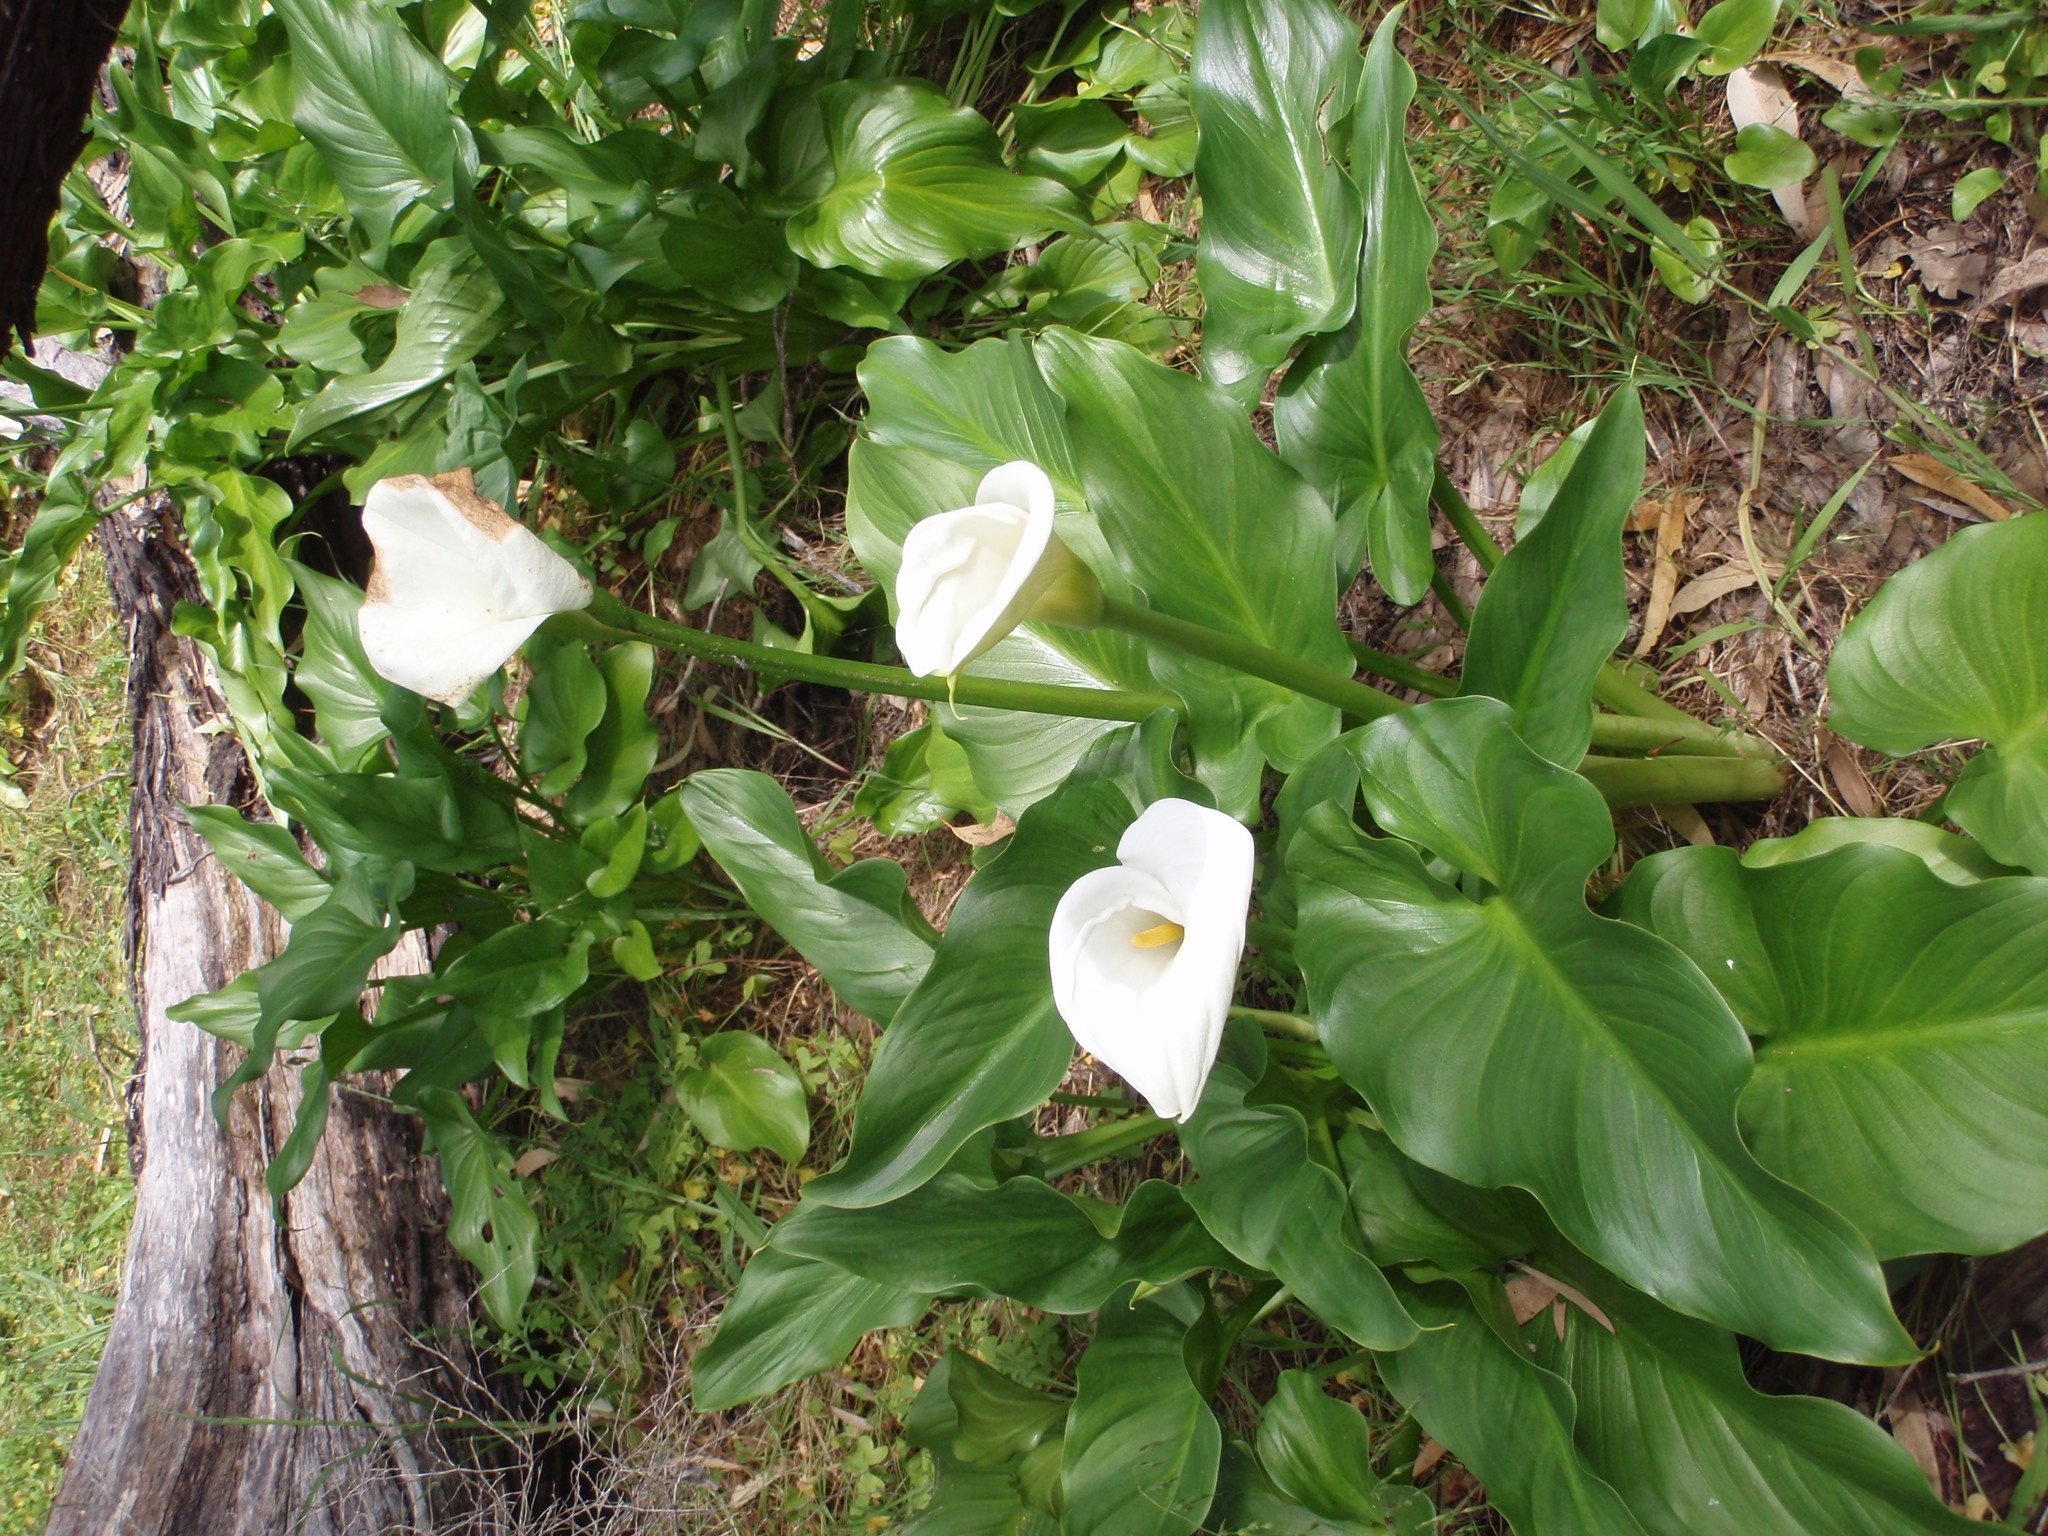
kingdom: Plantae
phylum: Tracheophyta
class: Liliopsida
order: Alismatales
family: Araceae
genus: Zantedeschia
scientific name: Zantedeschia aethiopica
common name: Altar-lily
